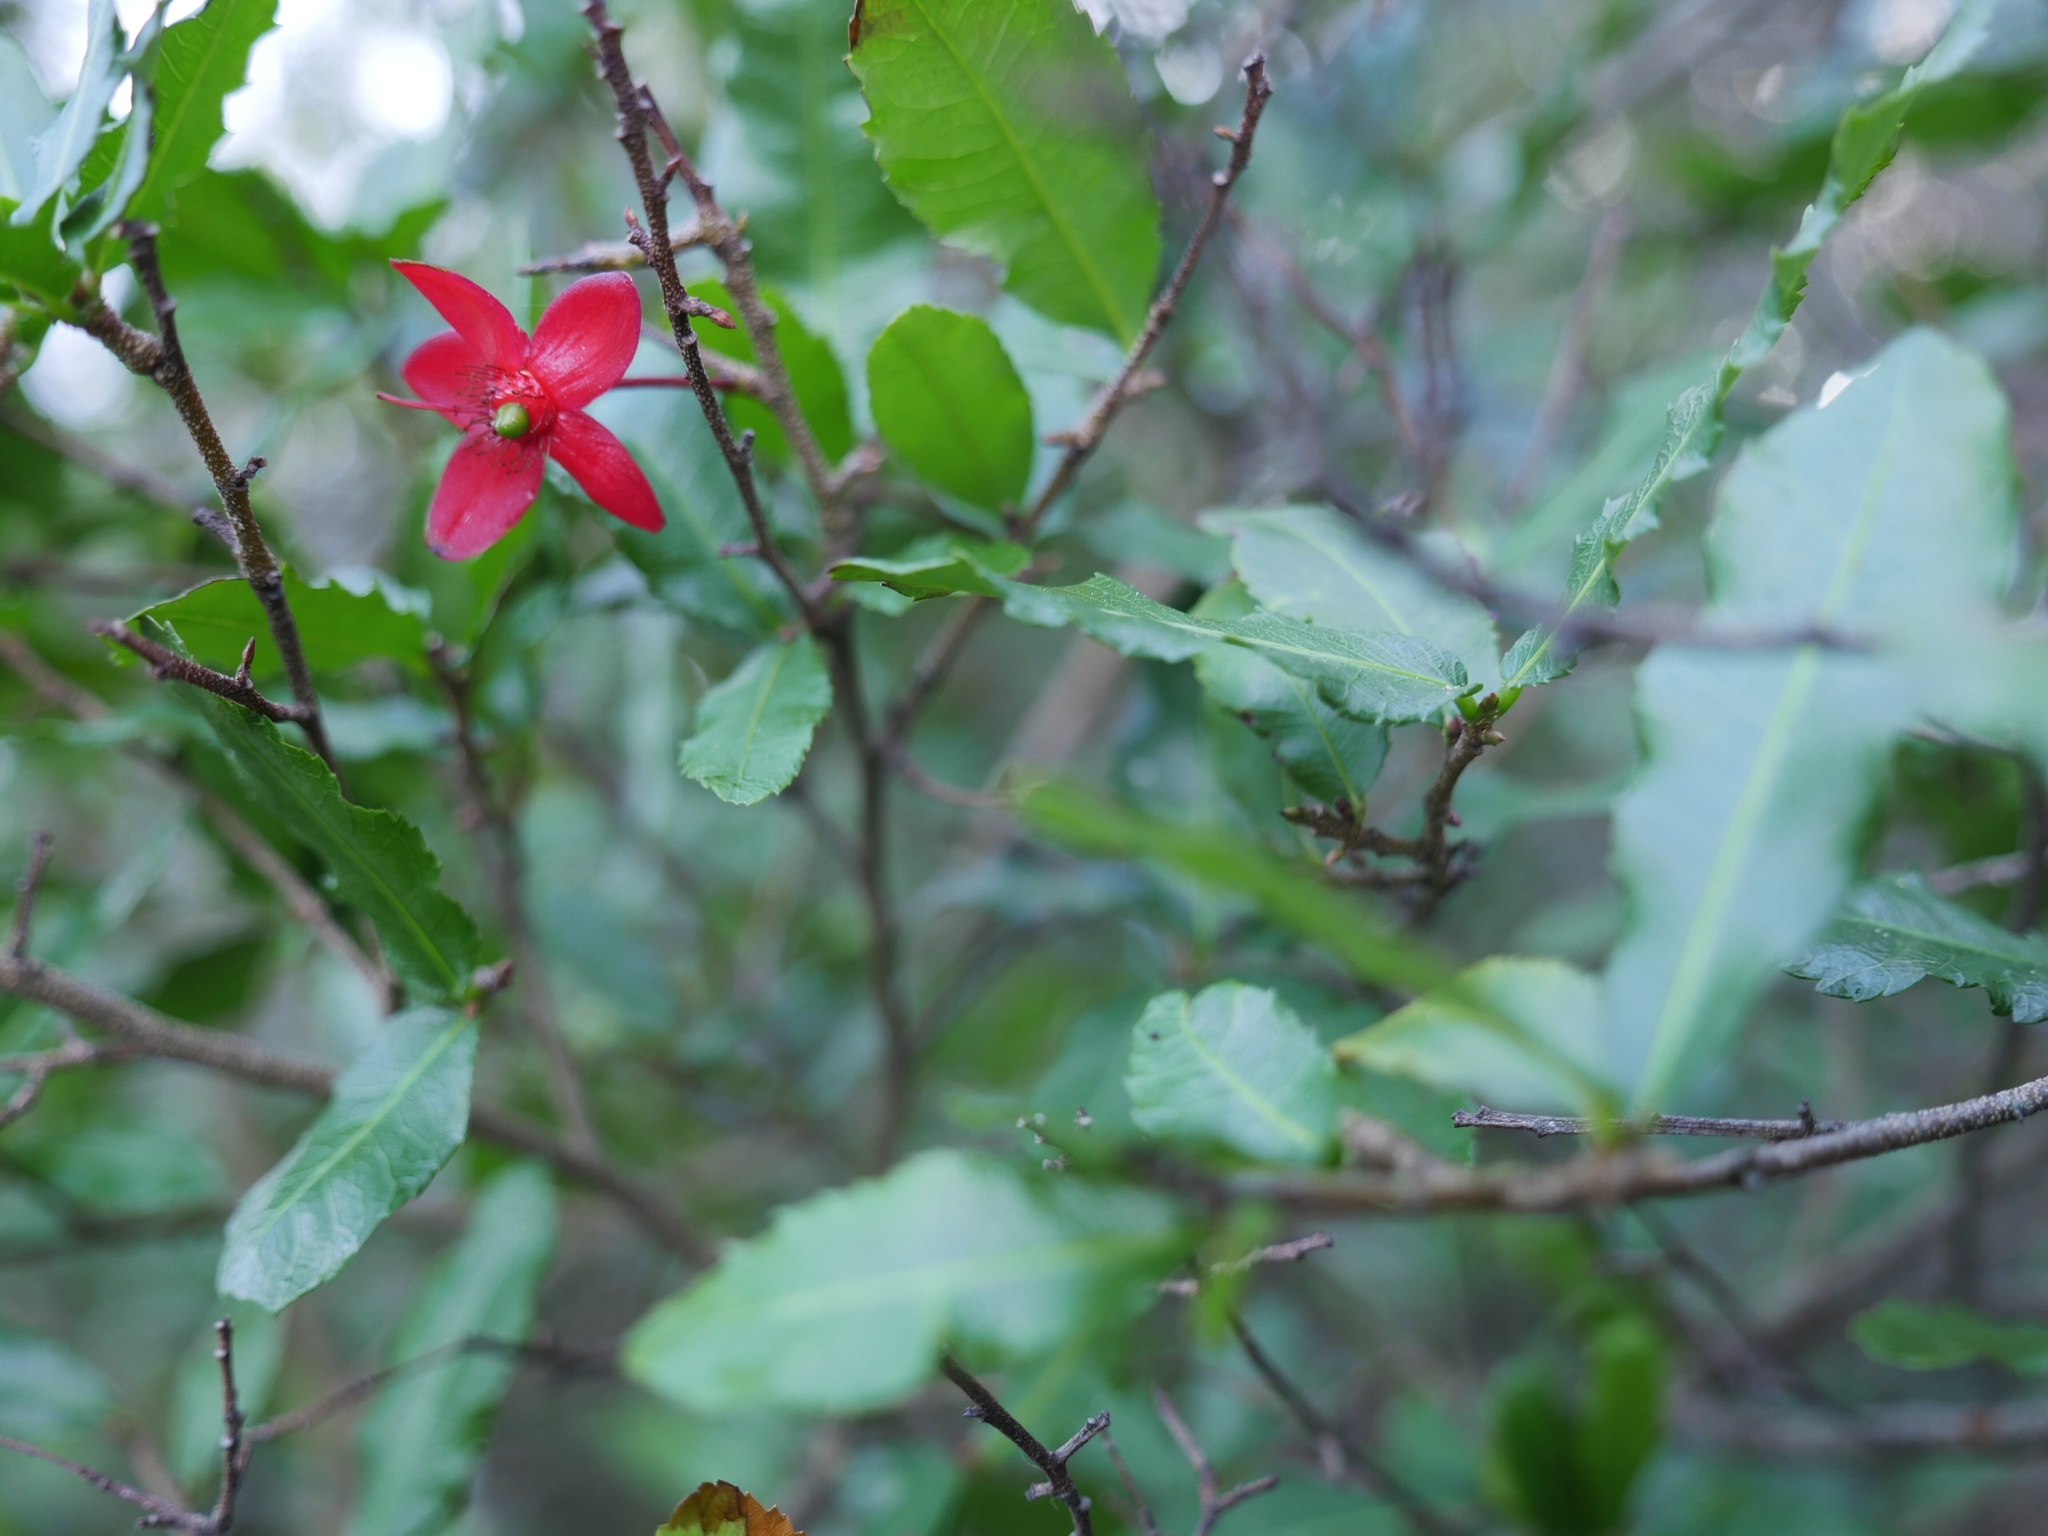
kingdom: Plantae
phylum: Tracheophyta
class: Magnoliopsida
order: Malpighiales
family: Ochnaceae
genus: Ochna
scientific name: Ochna serrulata
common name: Mickey mouse plant
